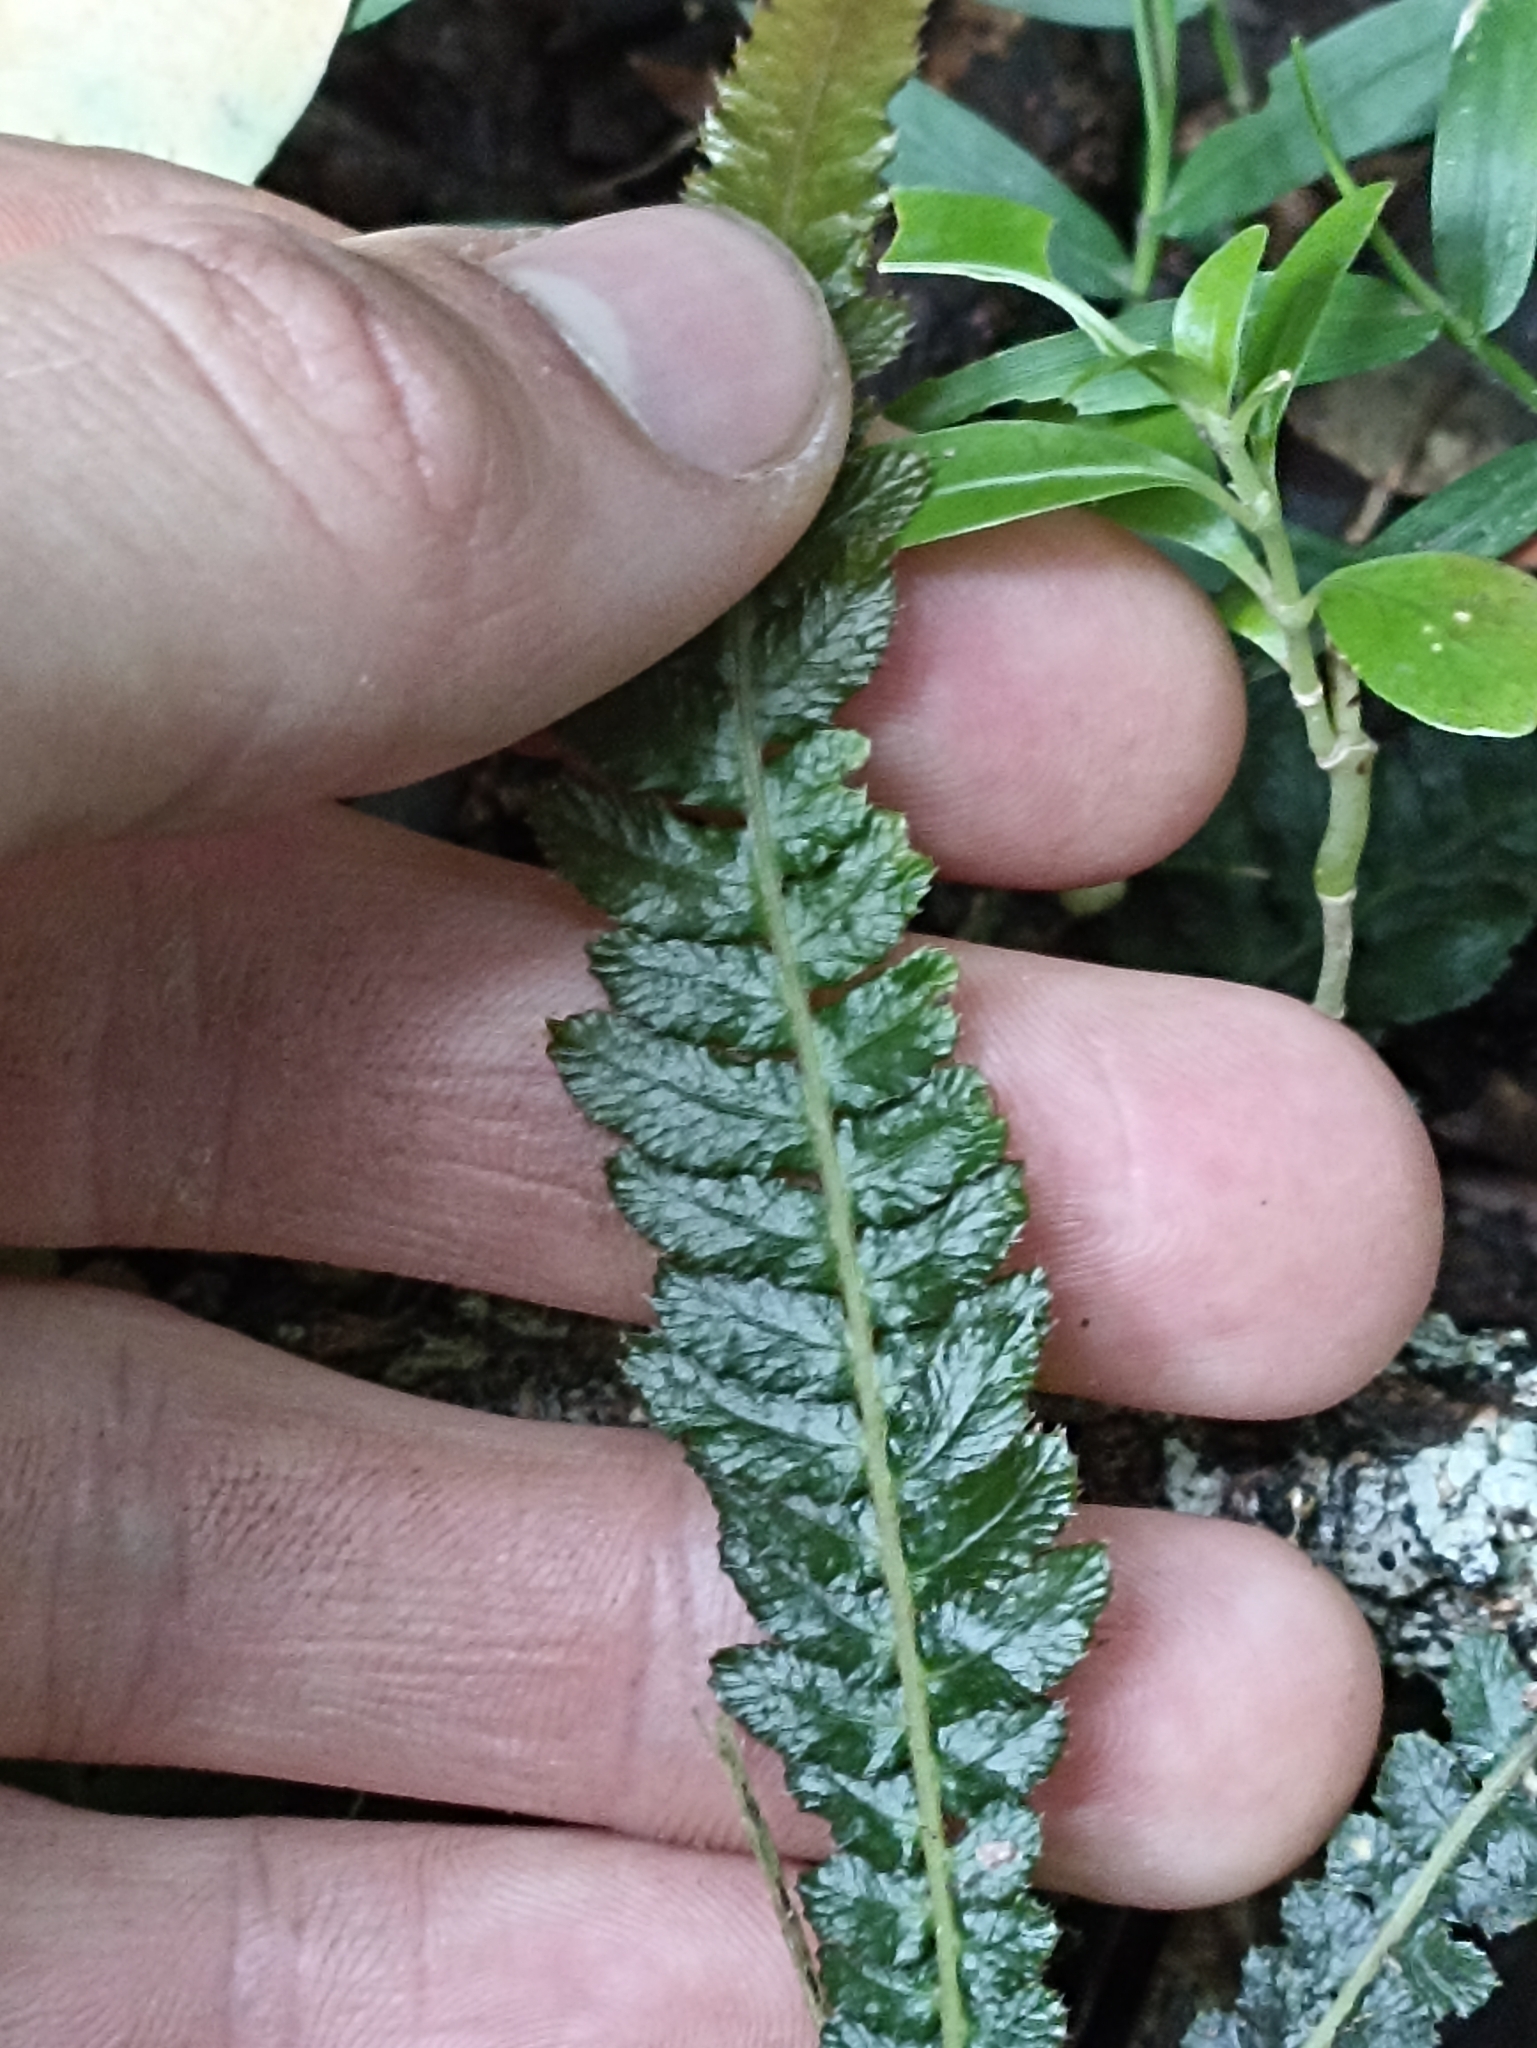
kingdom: Plantae
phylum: Tracheophyta
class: Polypodiopsida
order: Polypodiales
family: Blechnaceae
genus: Doodia
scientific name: Doodia australis
